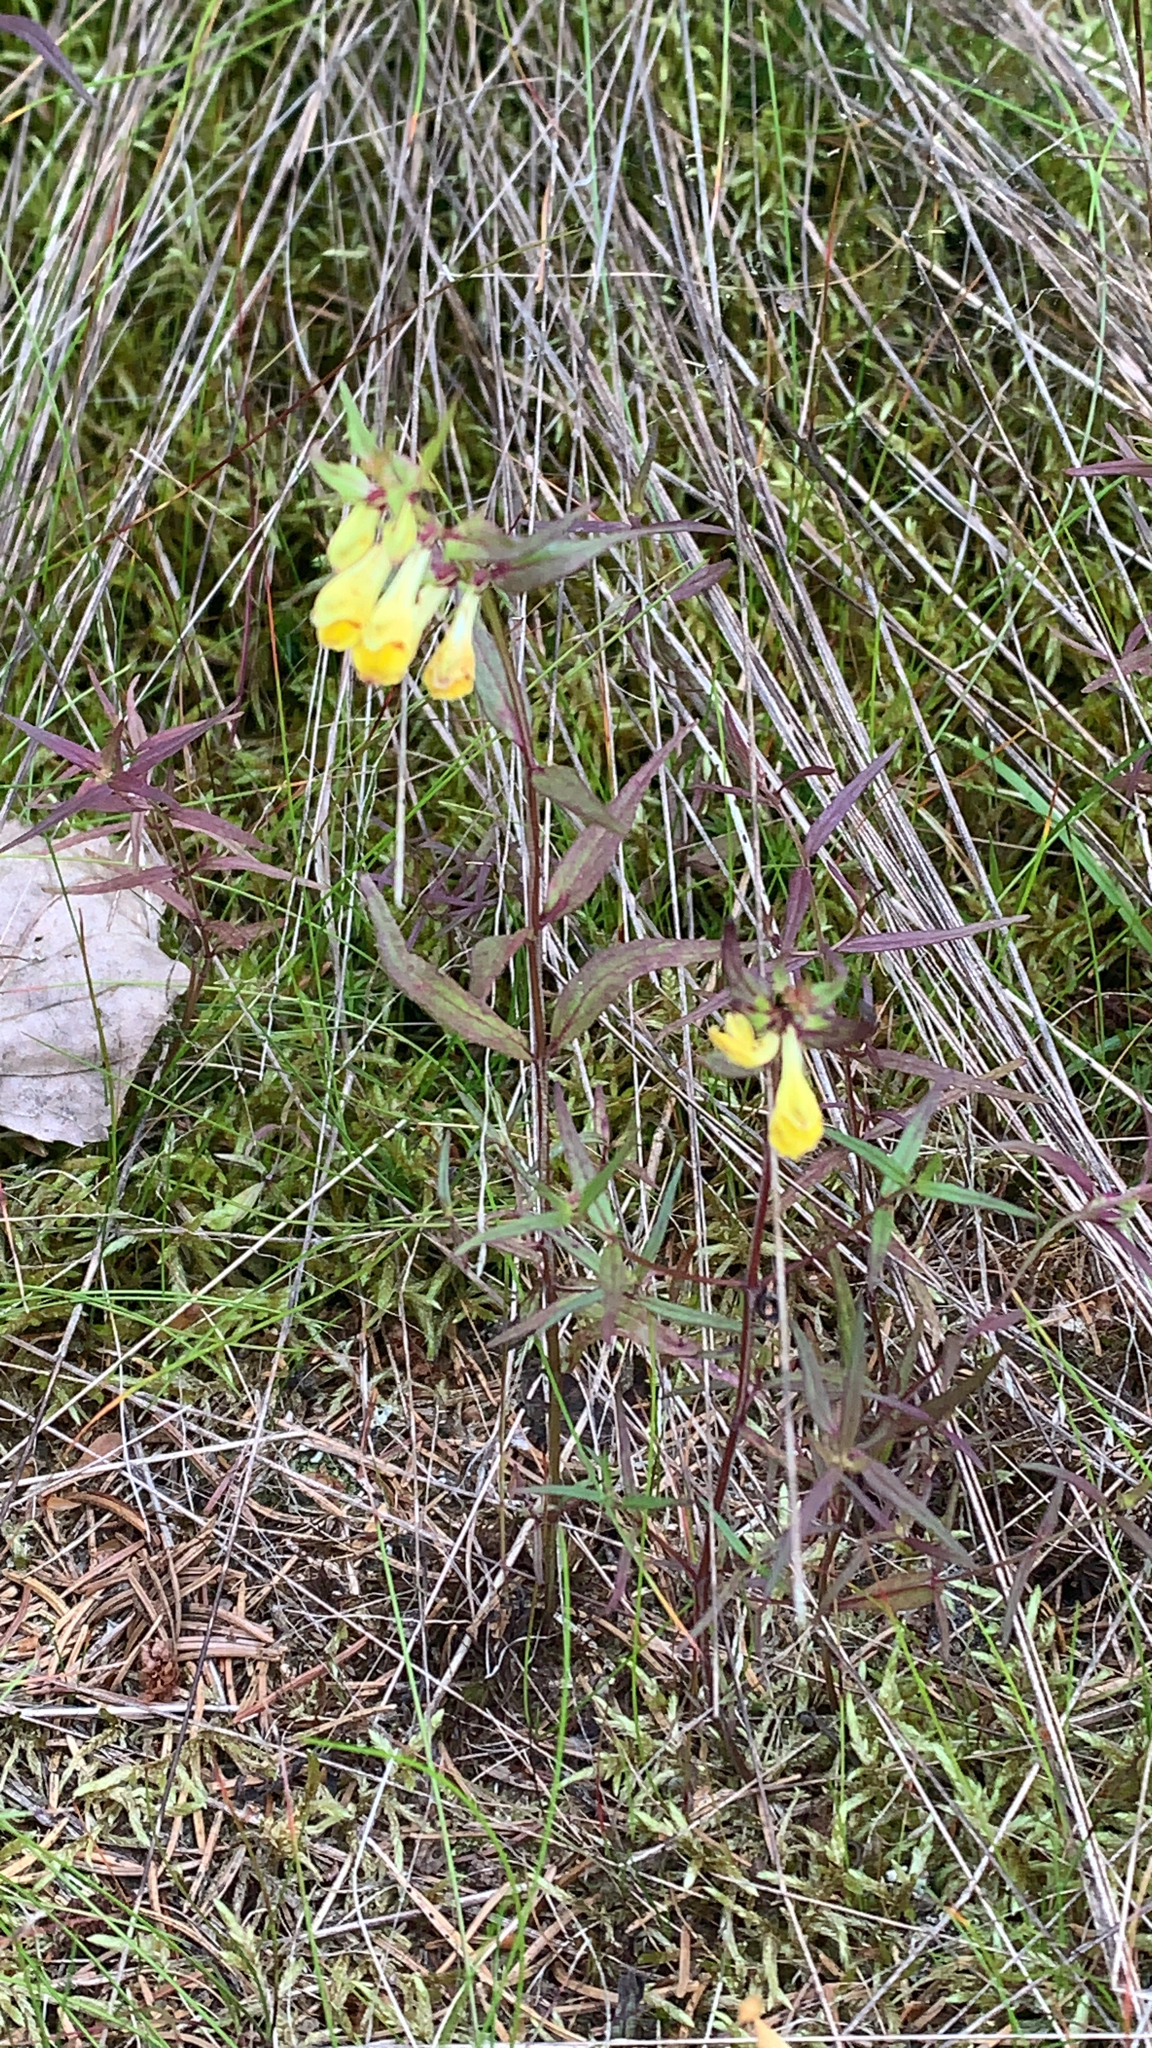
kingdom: Plantae
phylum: Tracheophyta
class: Magnoliopsida
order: Lamiales
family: Orobanchaceae
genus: Melampyrum
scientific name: Melampyrum pratense
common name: Common cow-wheat
